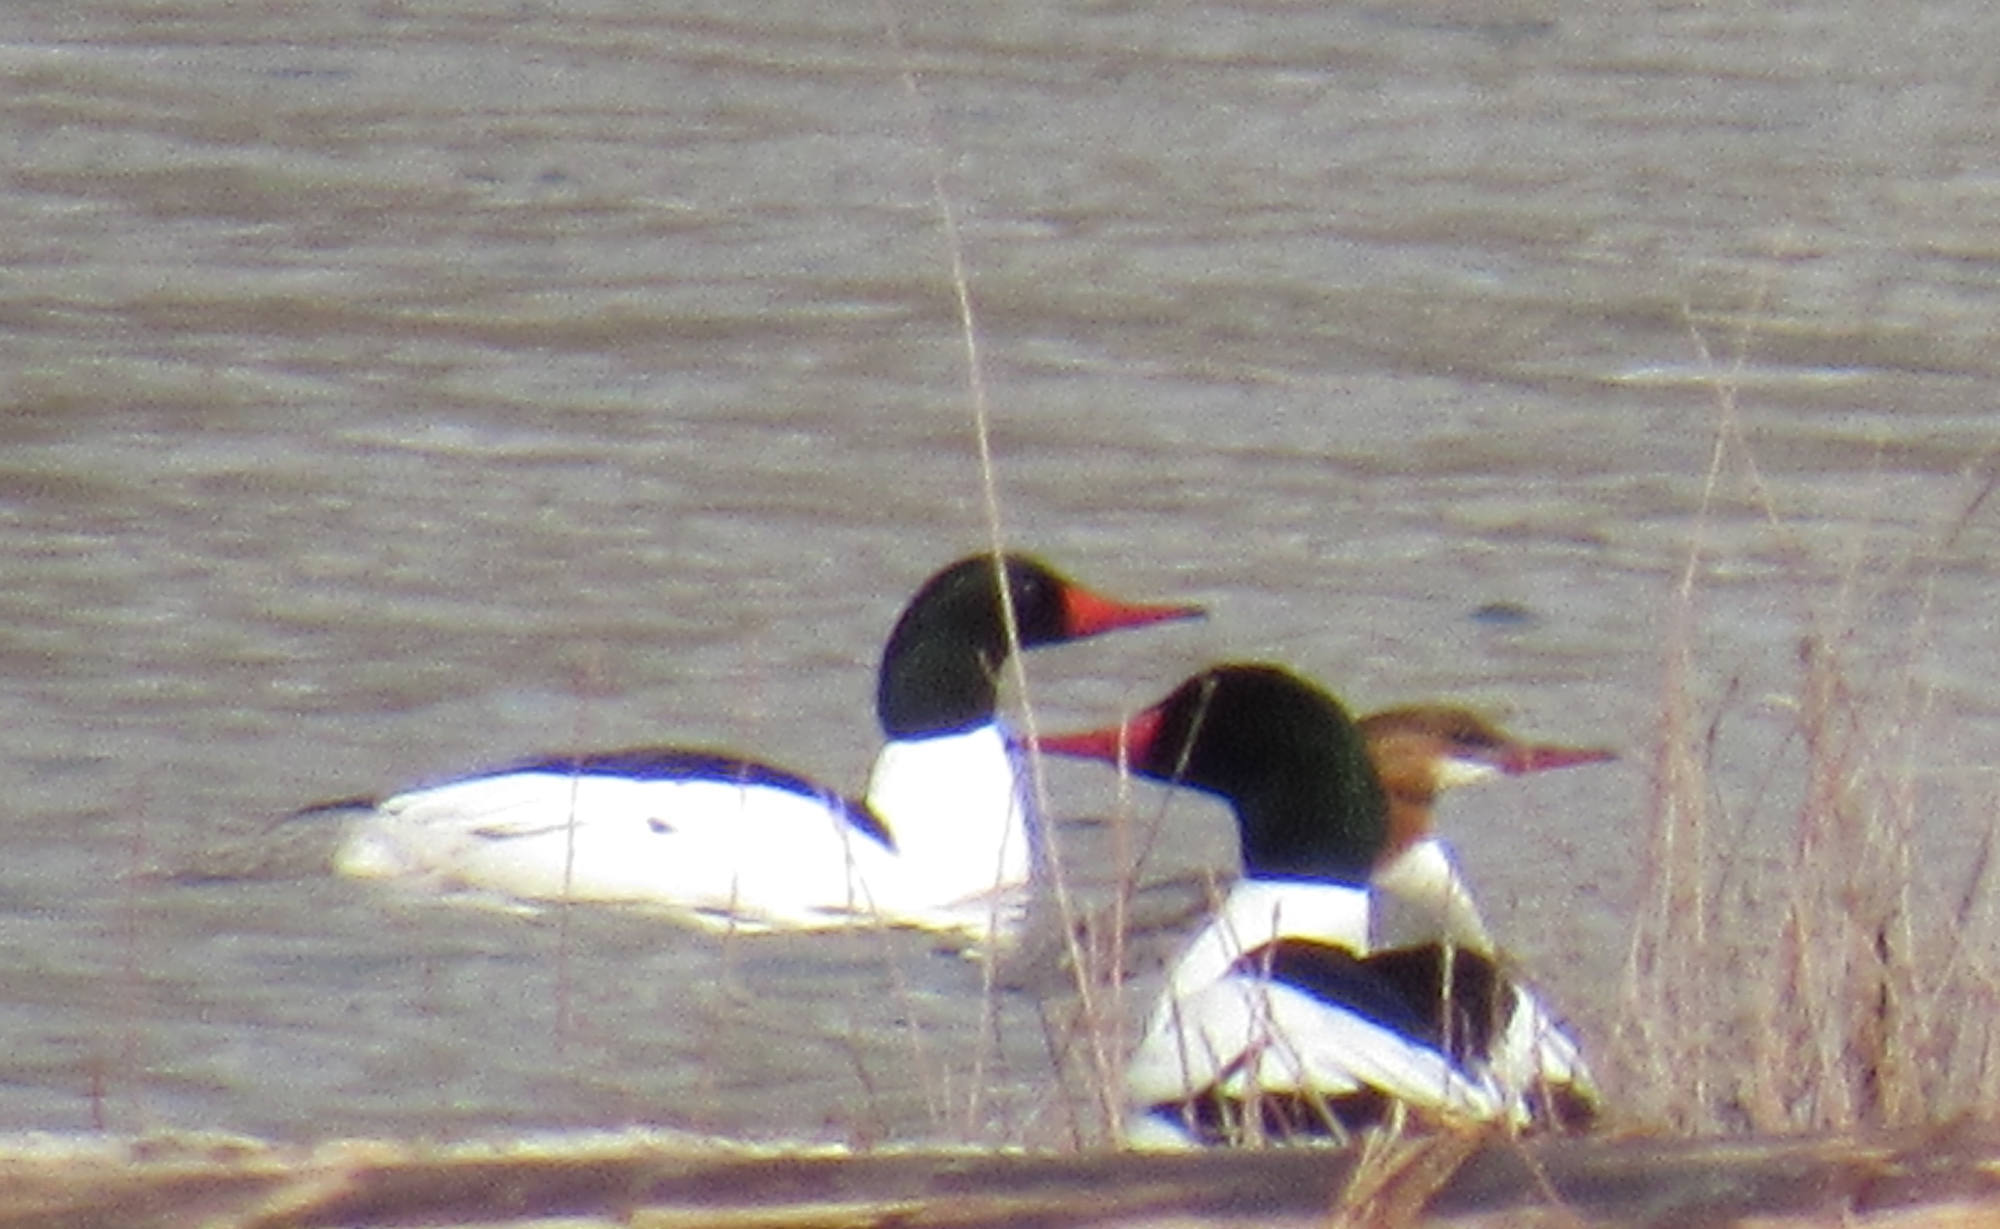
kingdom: Animalia
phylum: Chordata
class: Aves
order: Anseriformes
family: Anatidae
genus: Mergus
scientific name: Mergus merganser
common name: Common merganser
